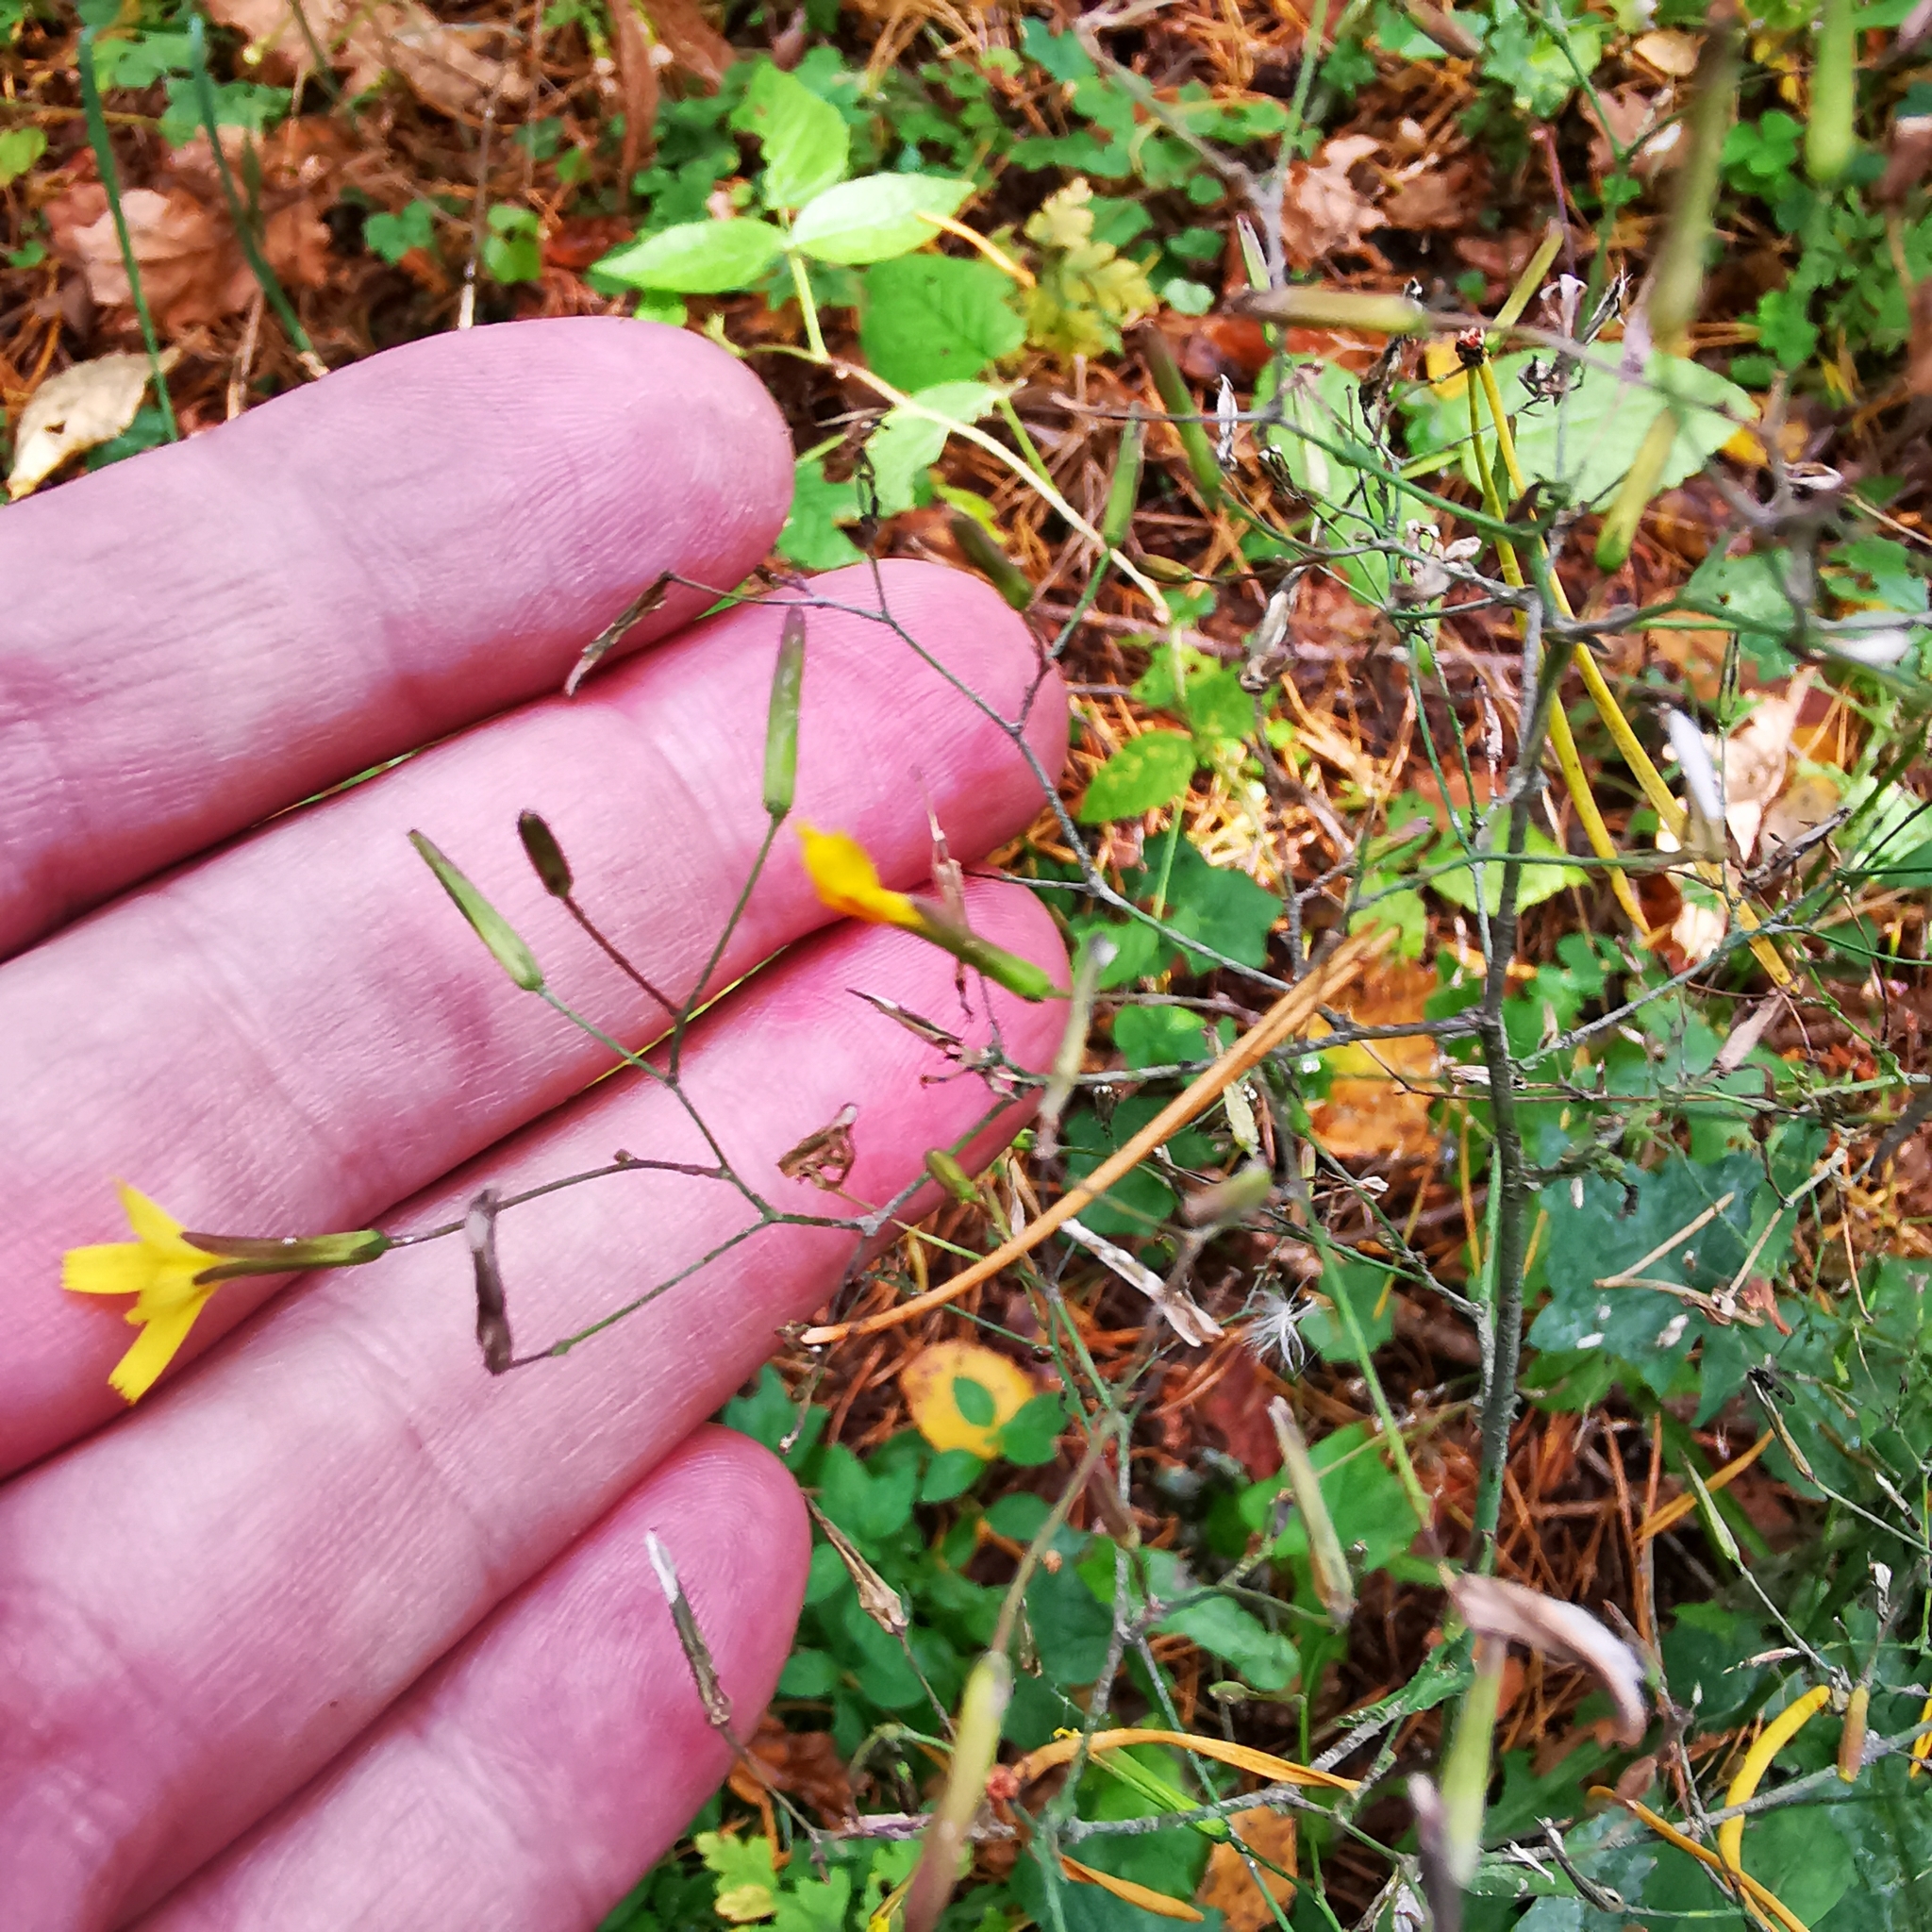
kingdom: Plantae
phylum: Tracheophyta
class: Magnoliopsida
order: Asterales
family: Asteraceae
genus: Mycelis
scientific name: Mycelis muralis
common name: Wall lettuce
